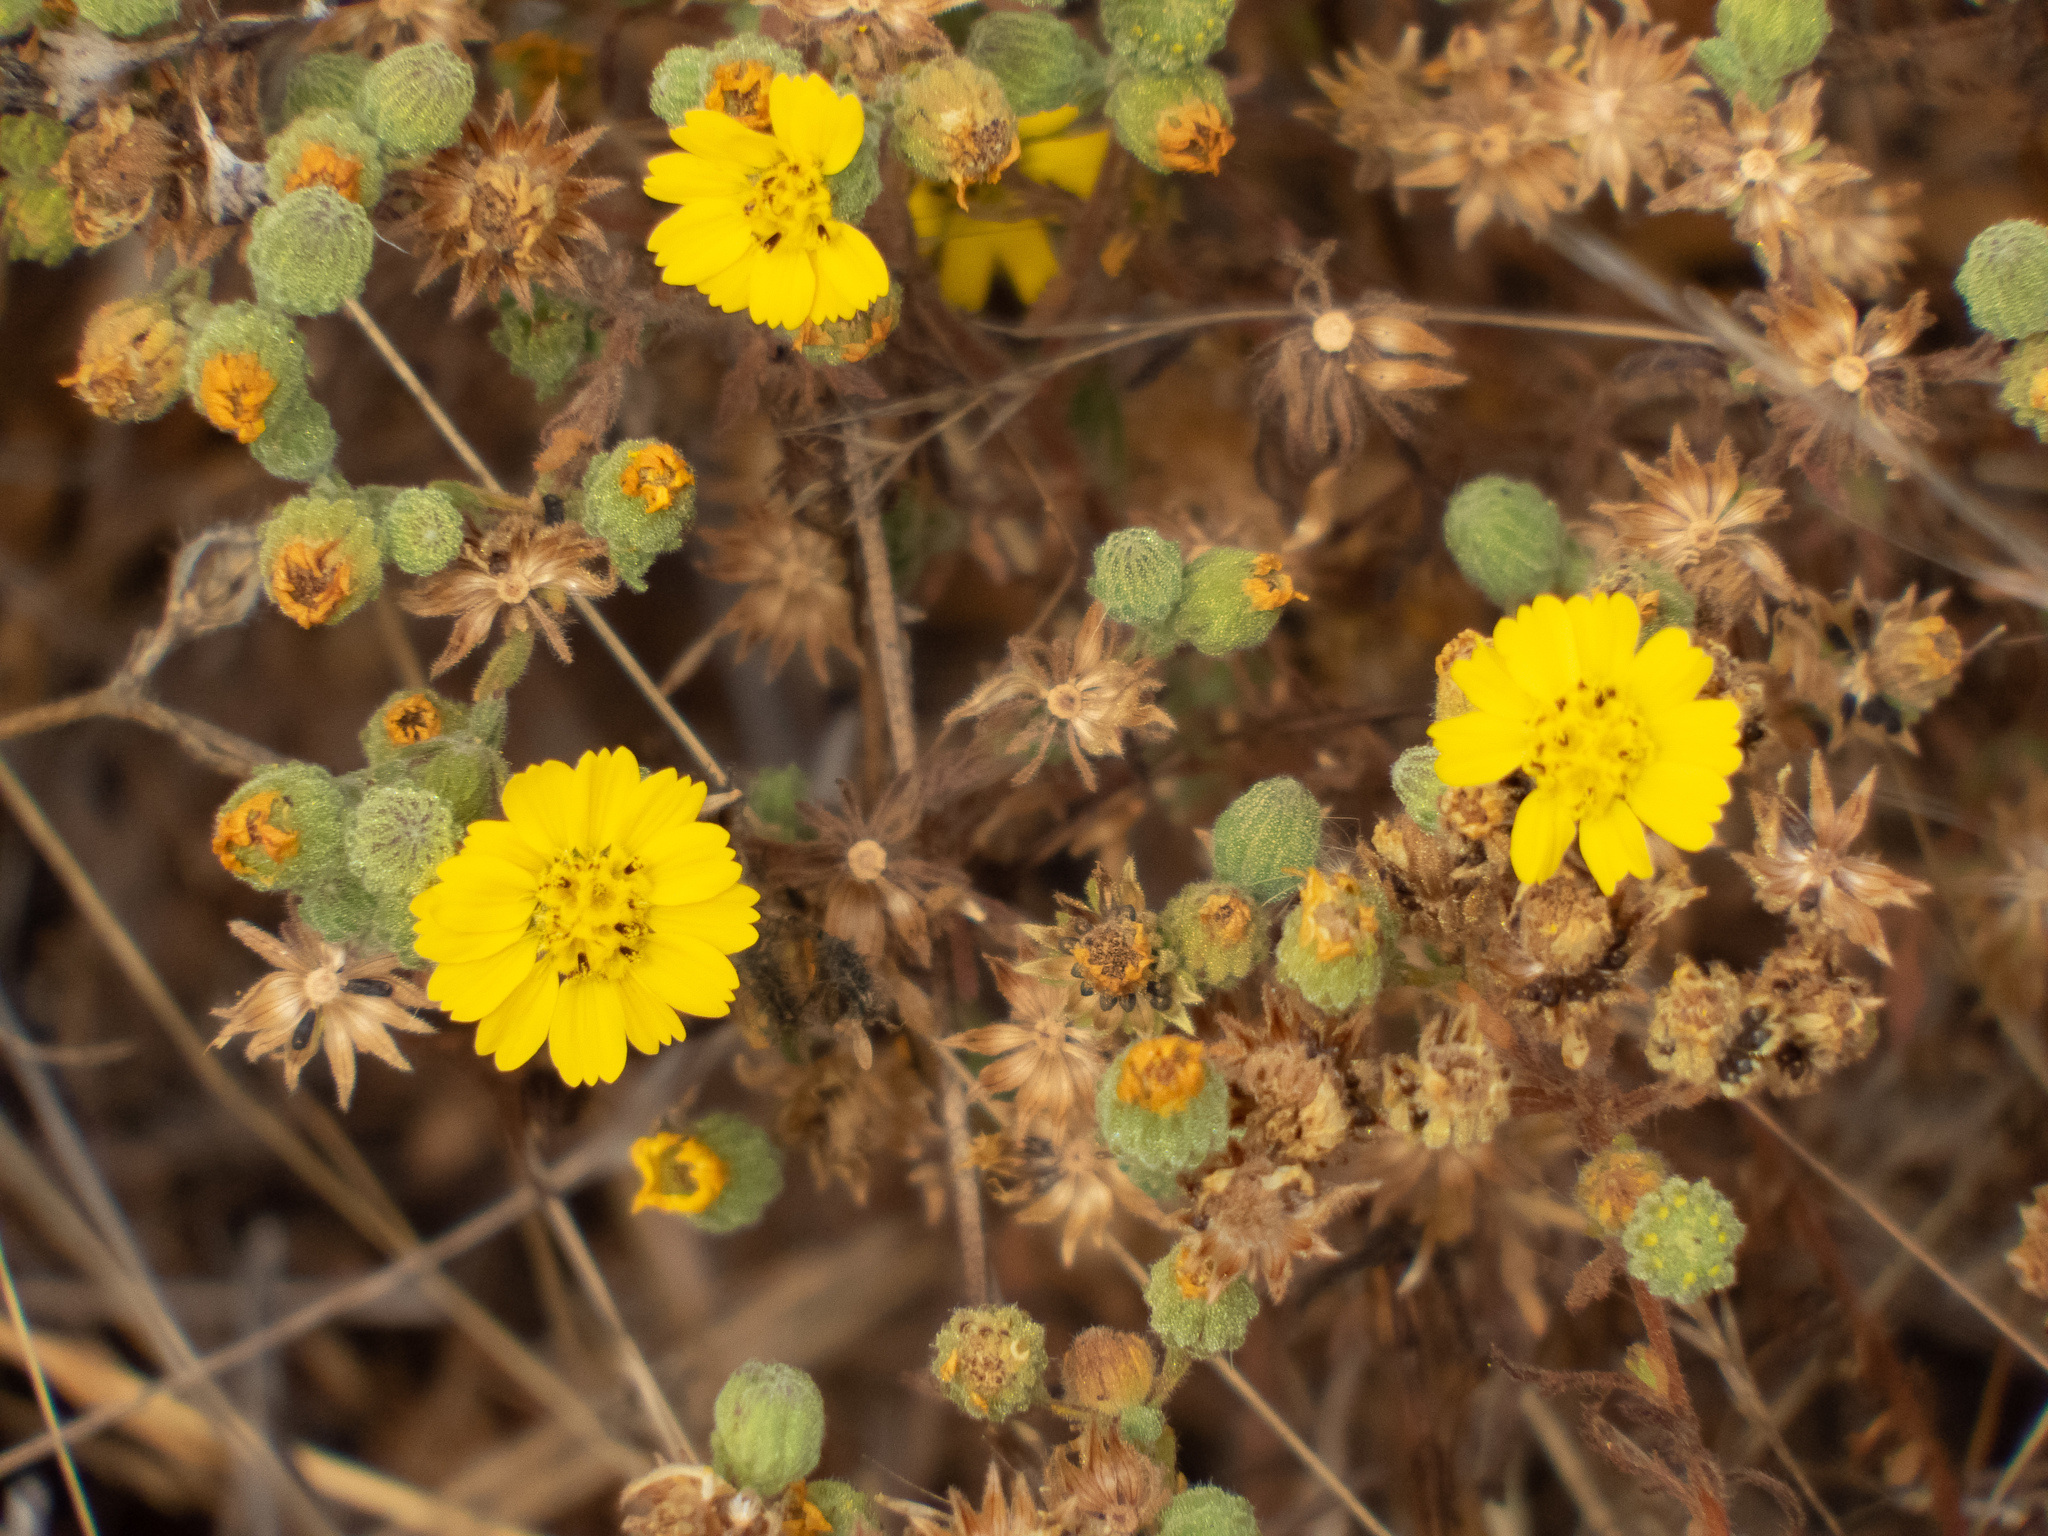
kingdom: Plantae
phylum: Tracheophyta
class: Magnoliopsida
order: Asterales
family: Asteraceae
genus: Deinandra
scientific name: Deinandra corymbosa
